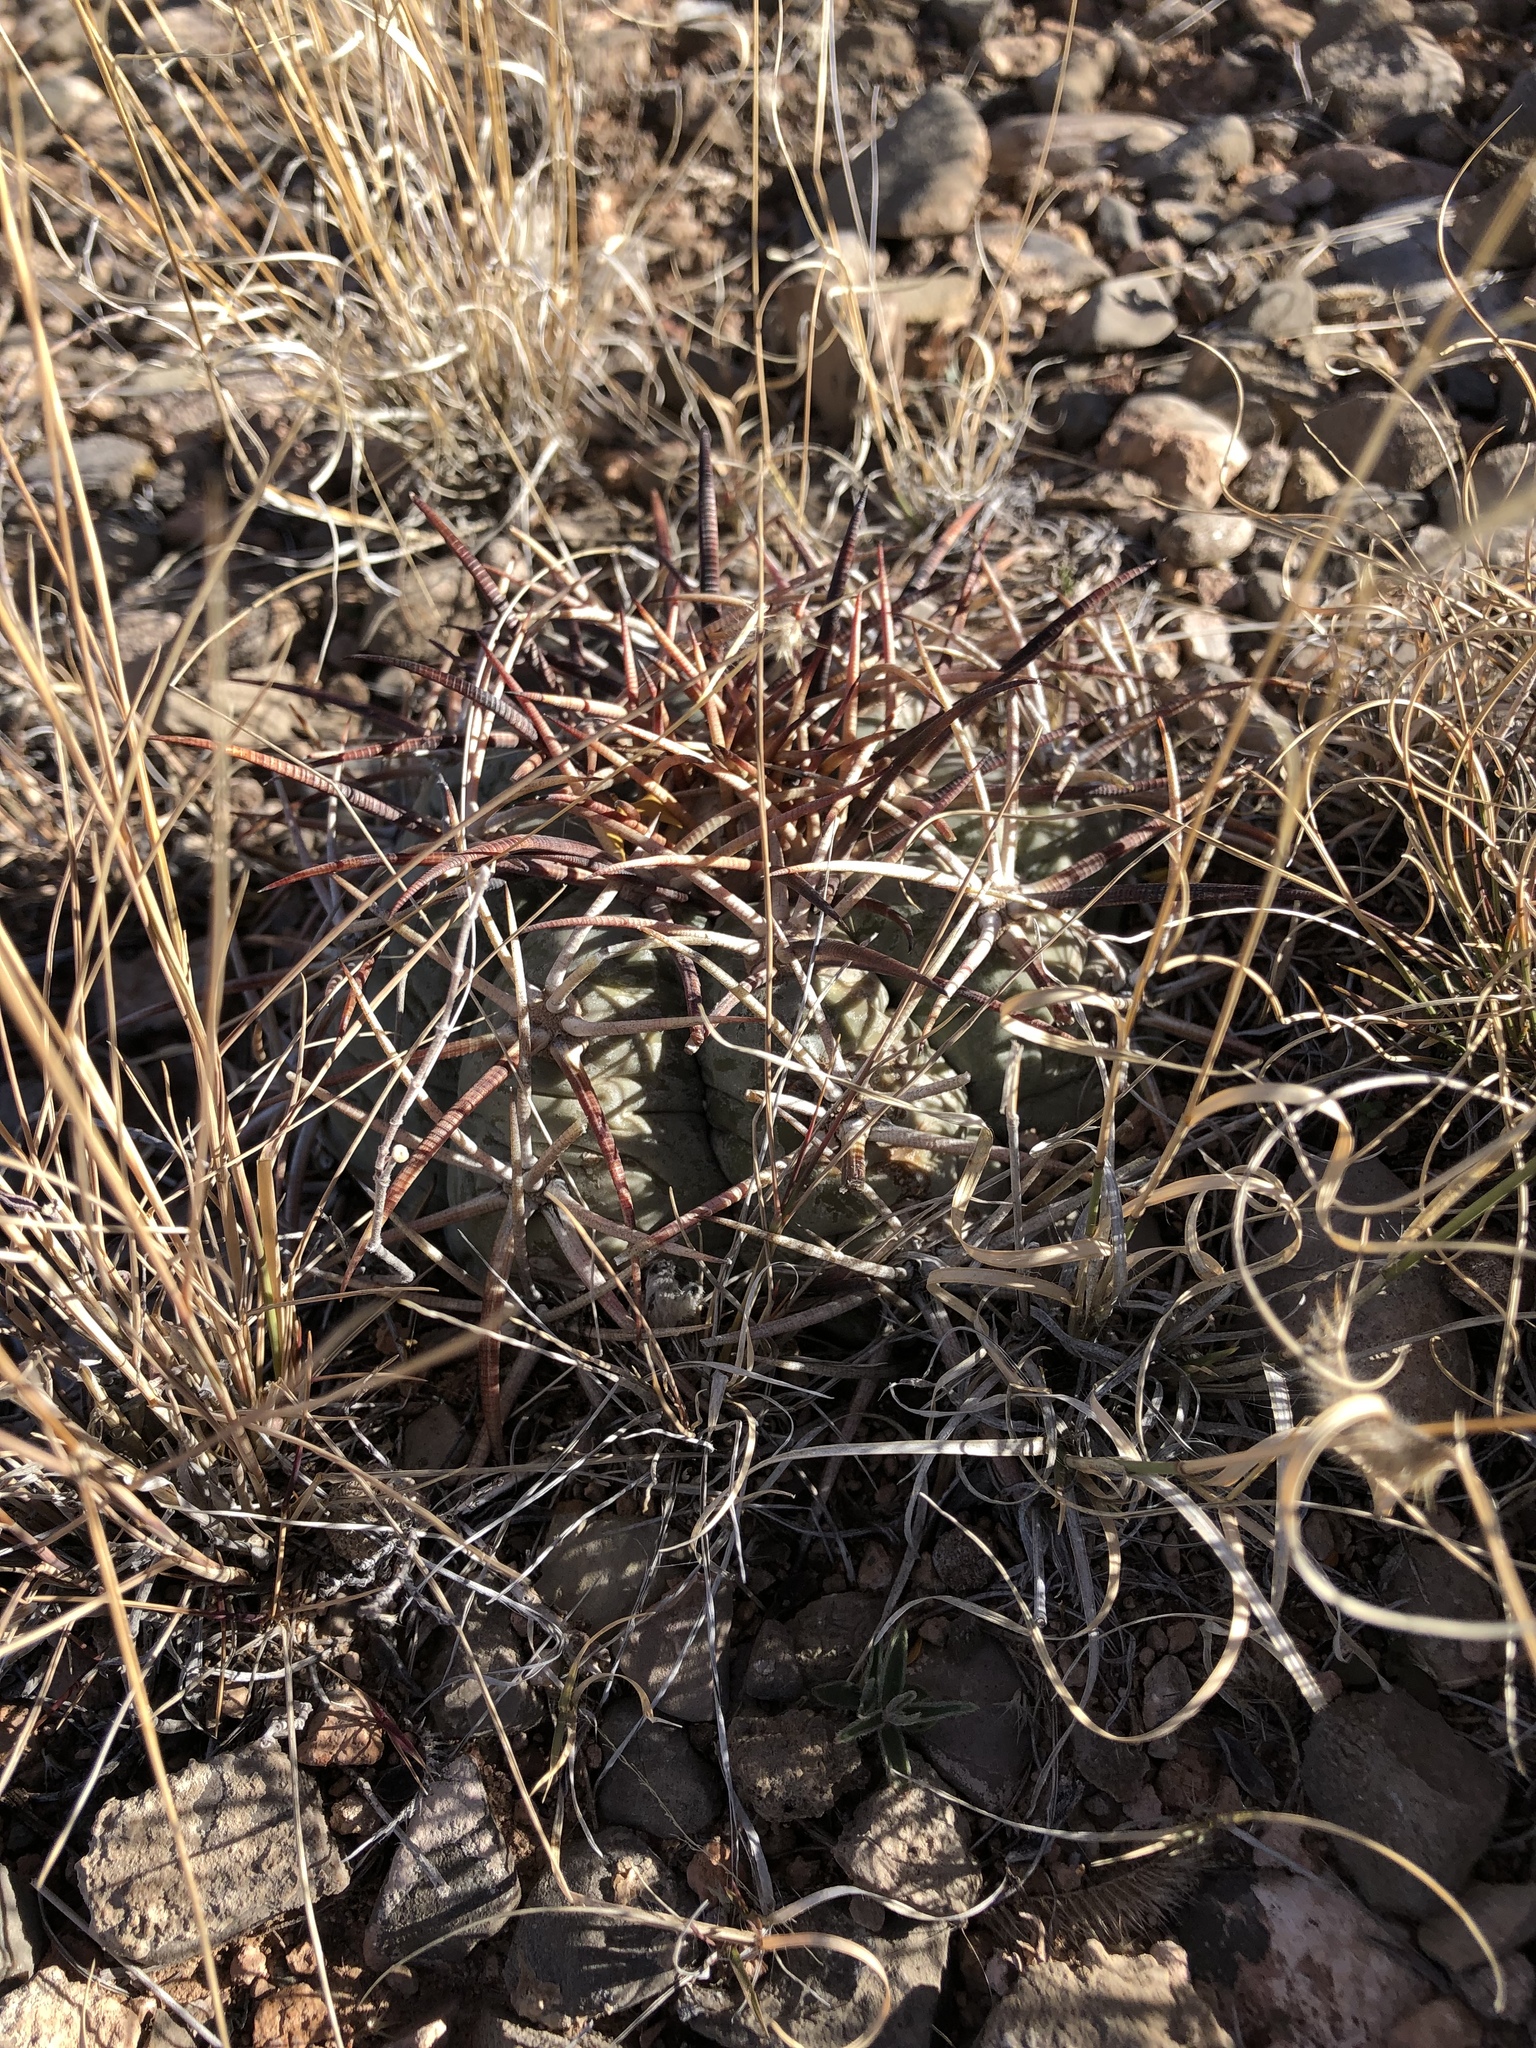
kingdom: Plantae
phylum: Tracheophyta
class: Magnoliopsida
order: Caryophyllales
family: Cactaceae
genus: Echinocactus
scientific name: Echinocactus horizonthalonius
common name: Devilshead
